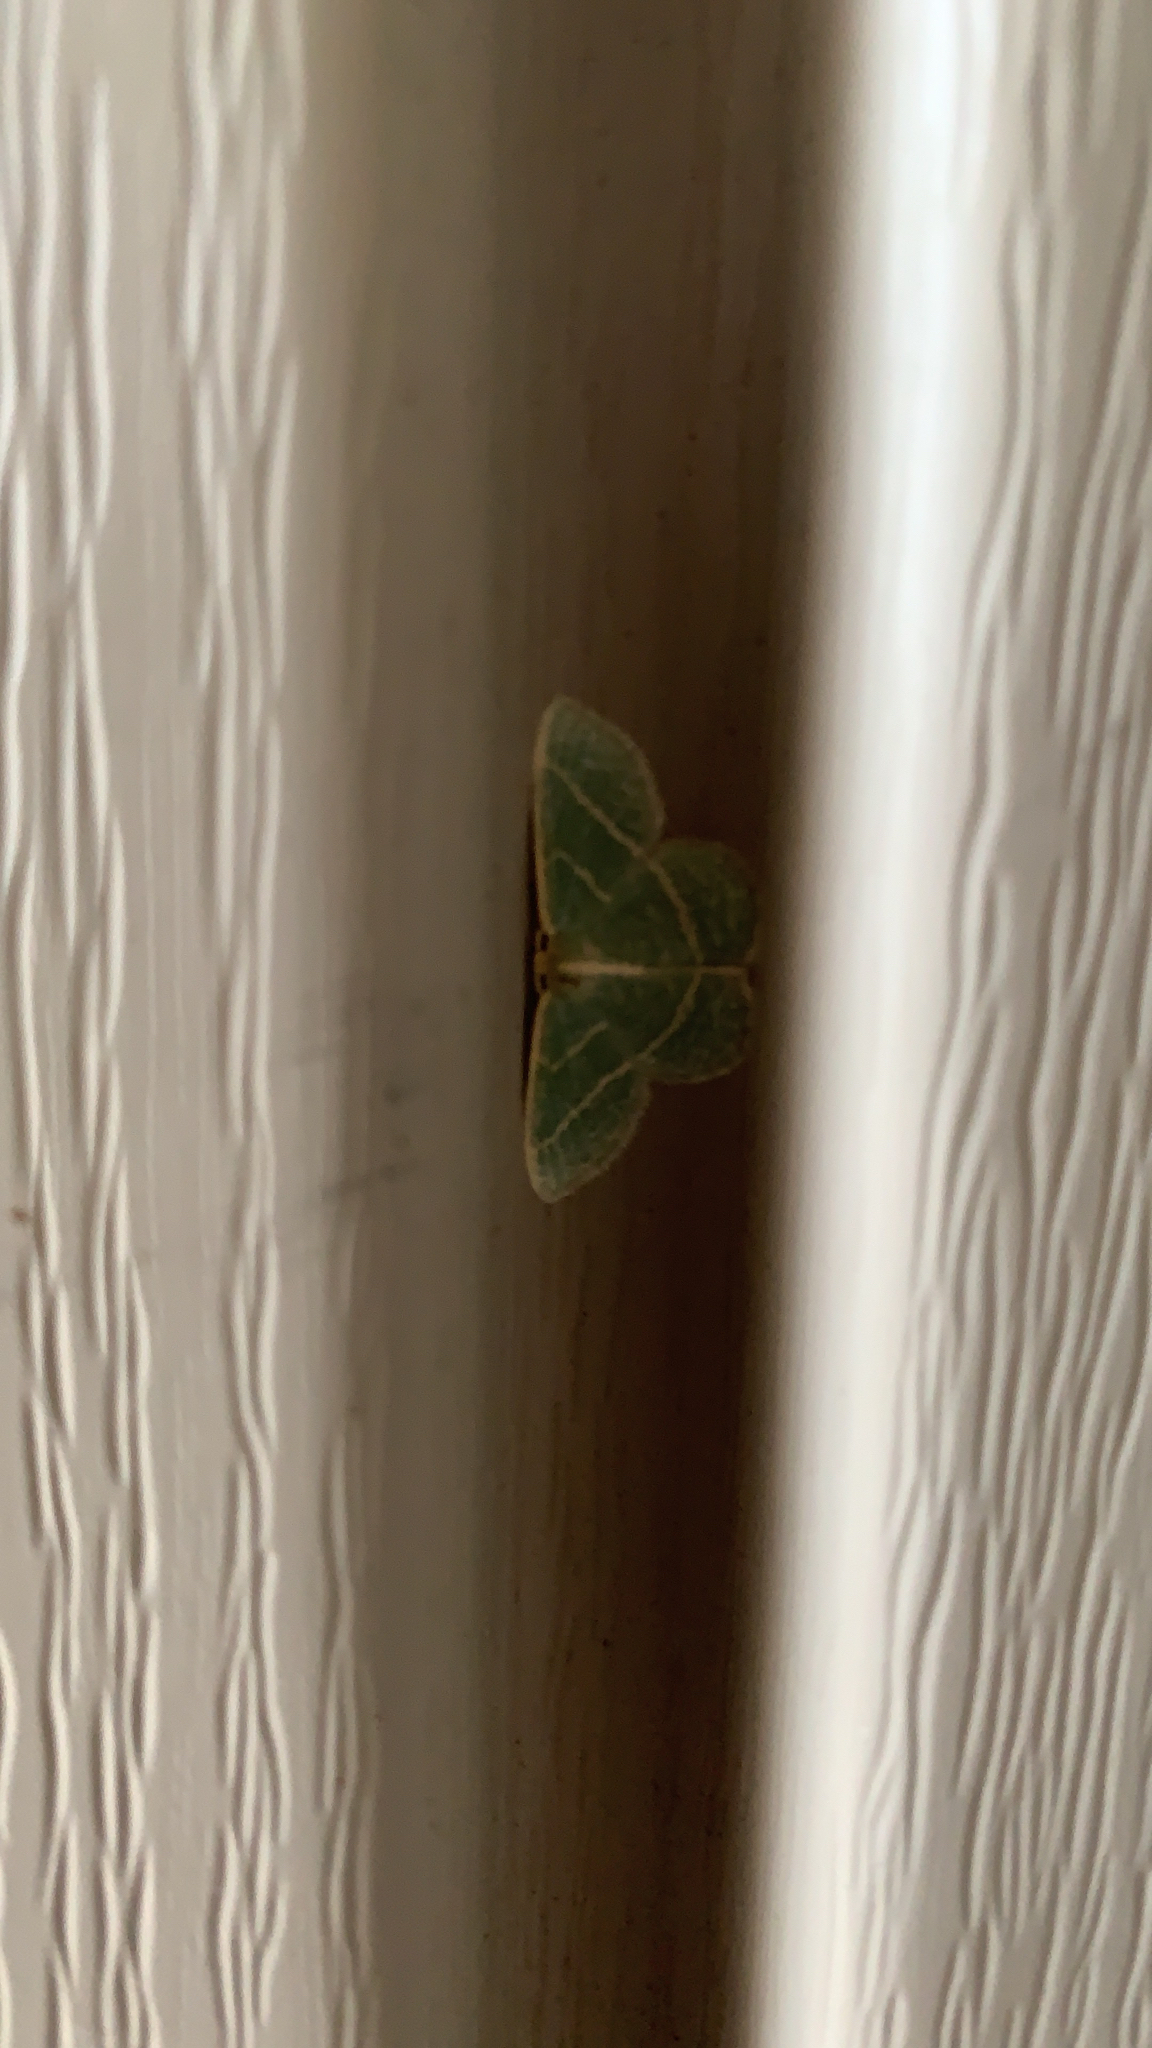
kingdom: Animalia
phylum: Arthropoda
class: Insecta
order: Lepidoptera
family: Geometridae
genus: Chlorochlamys
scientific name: Chlorochlamys chloroleucaria
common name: Blackberry looper
